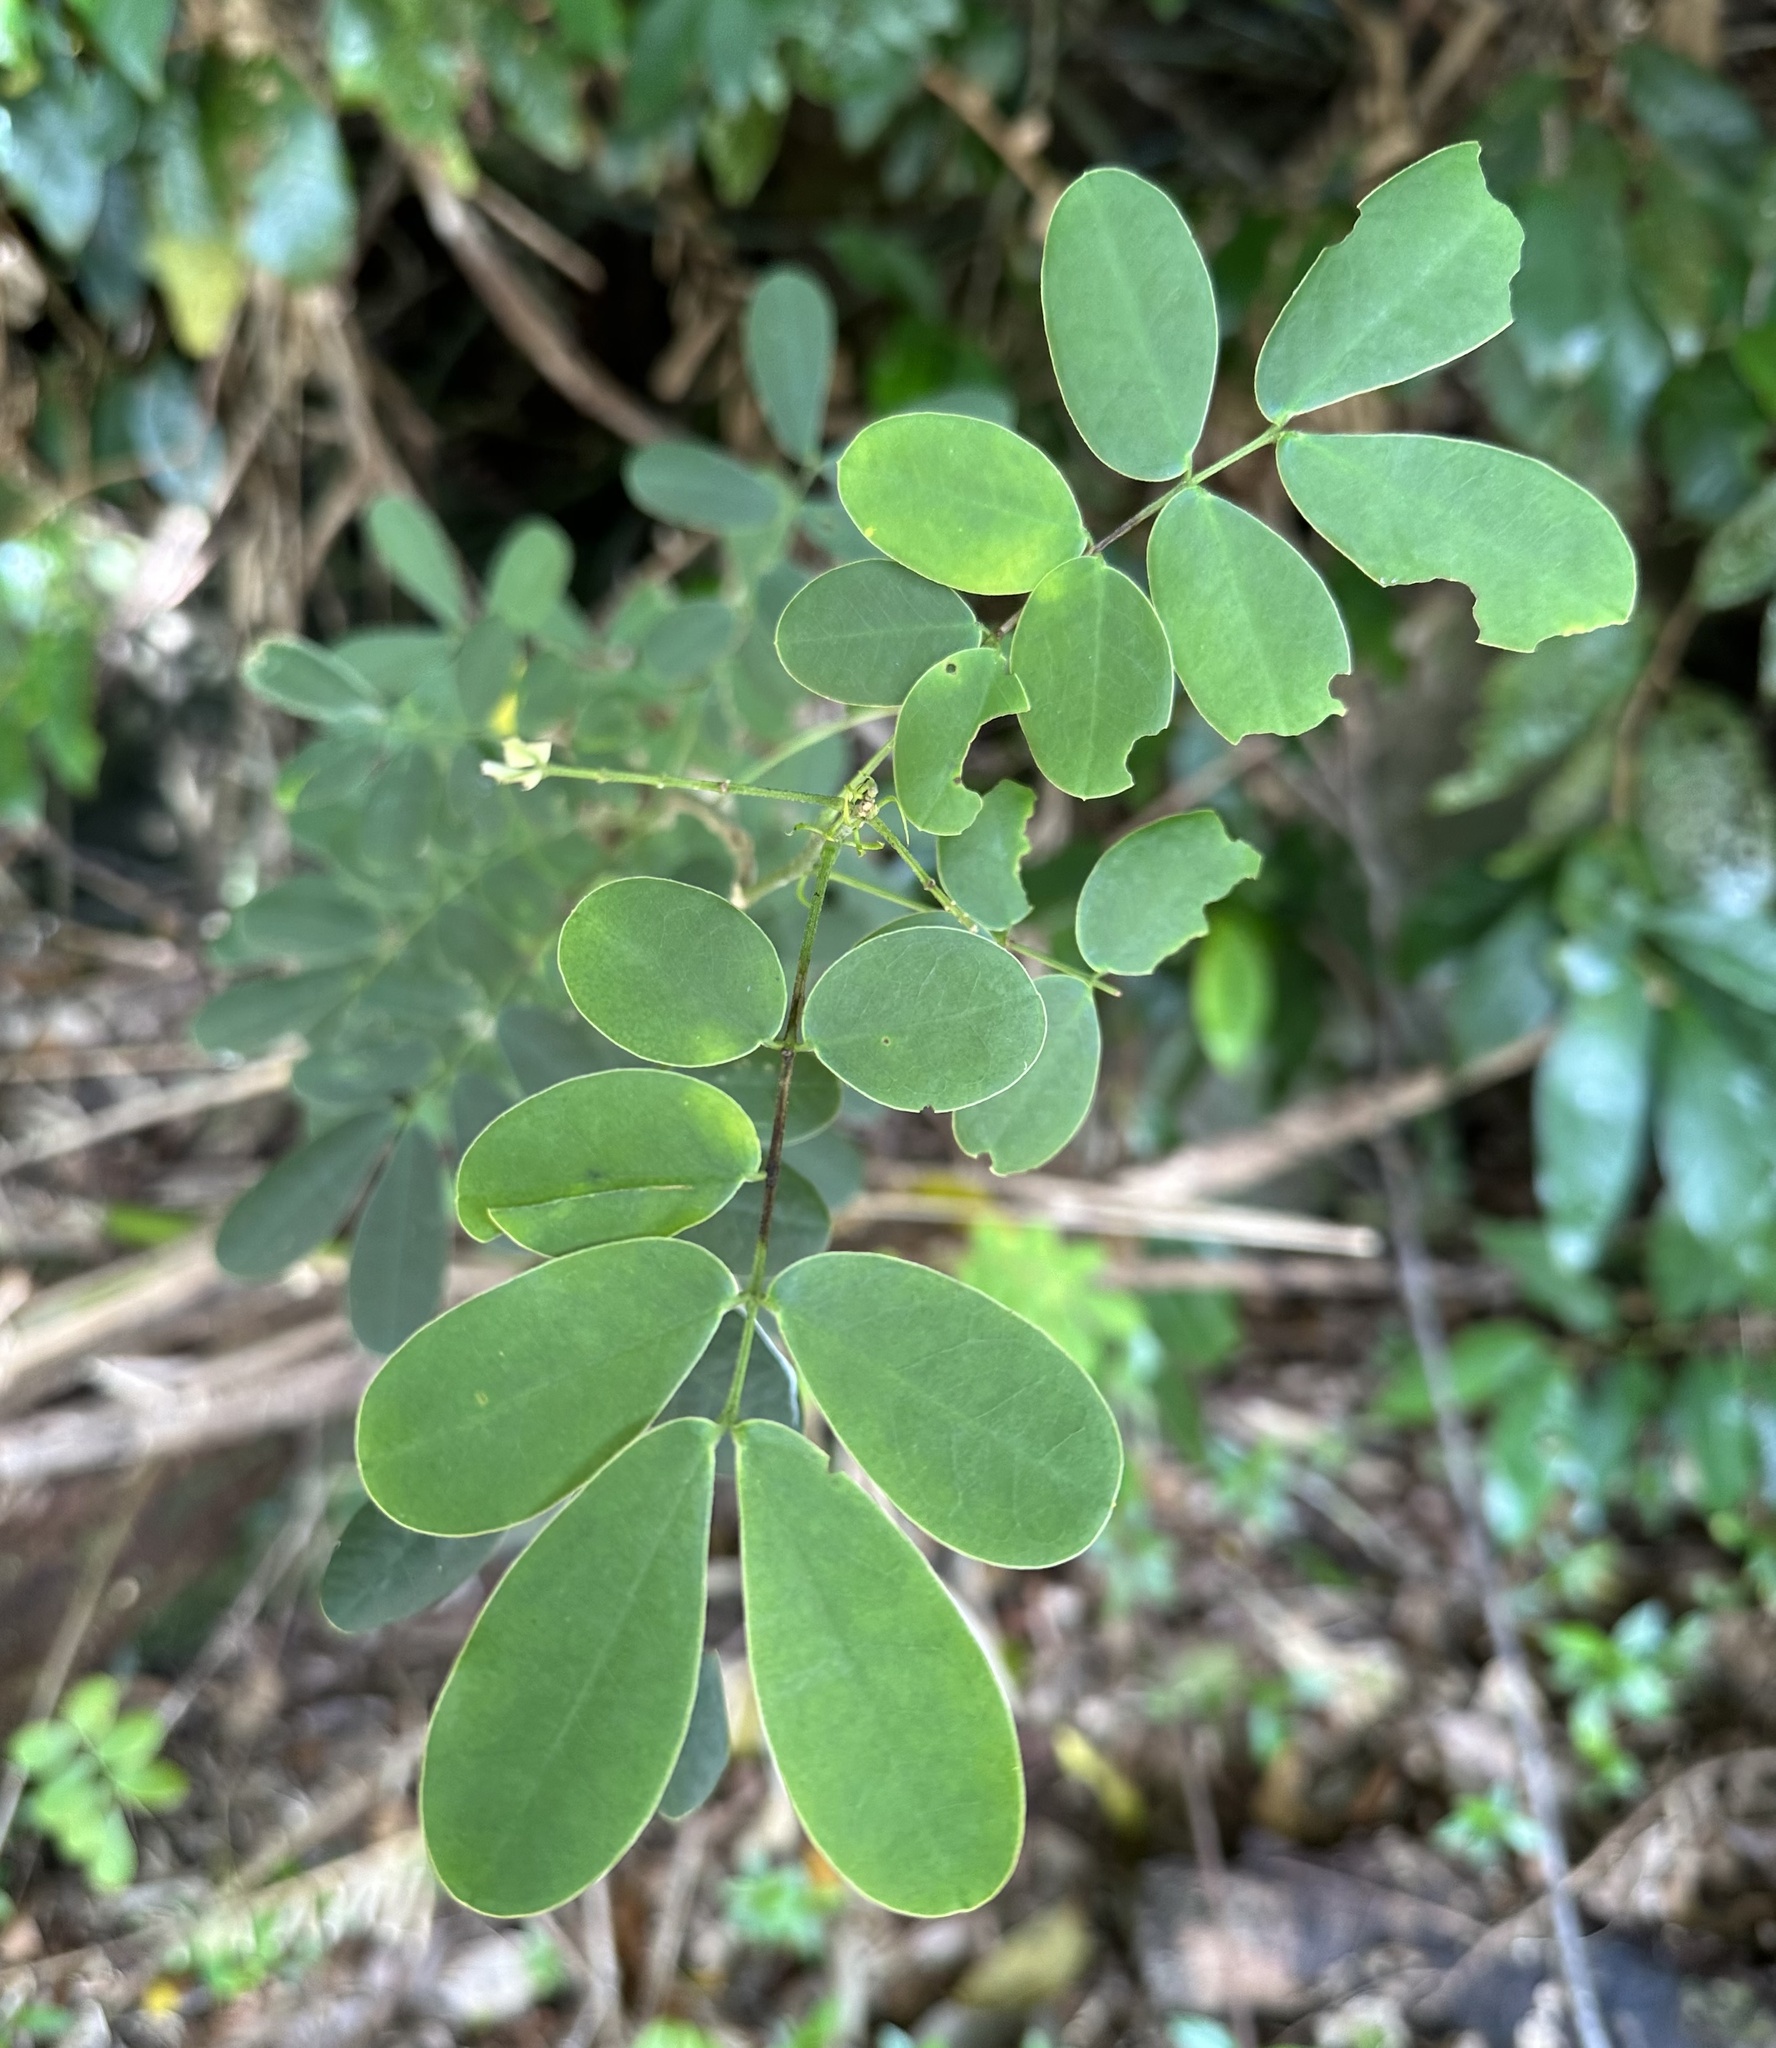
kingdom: Plantae
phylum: Tracheophyta
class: Magnoliopsida
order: Fabales
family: Fabaceae
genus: Senna
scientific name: Senna pendula
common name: Easter cassia
